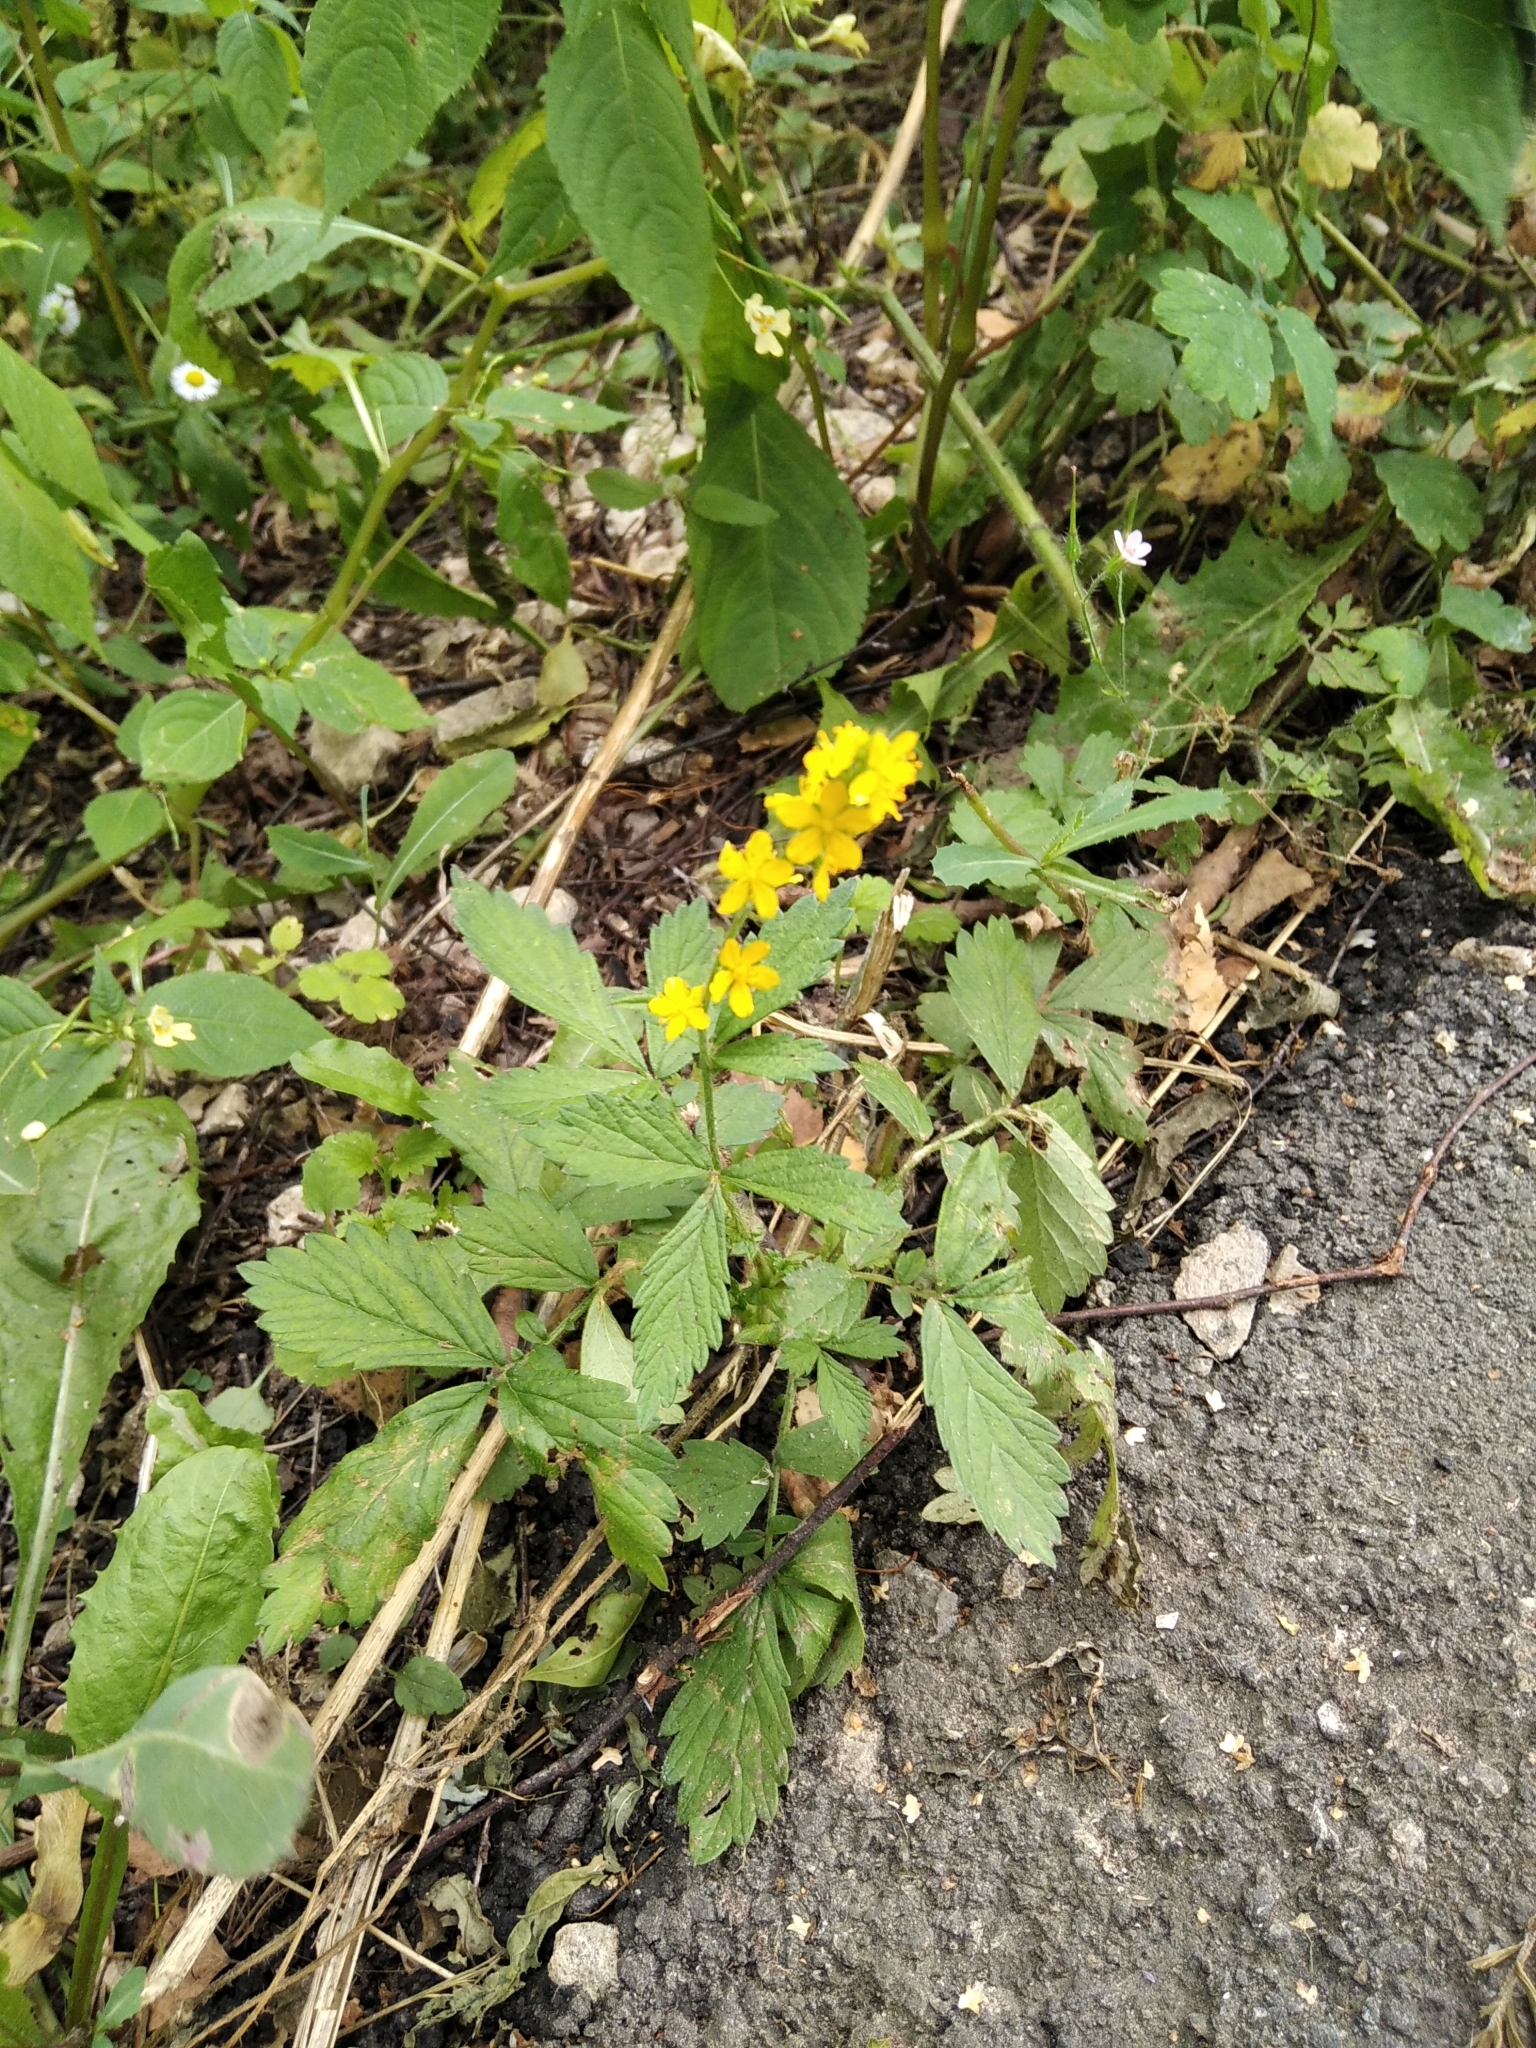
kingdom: Plantae
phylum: Tracheophyta
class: Magnoliopsida
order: Rosales
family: Rosaceae
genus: Agrimonia
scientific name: Agrimonia pilosa
